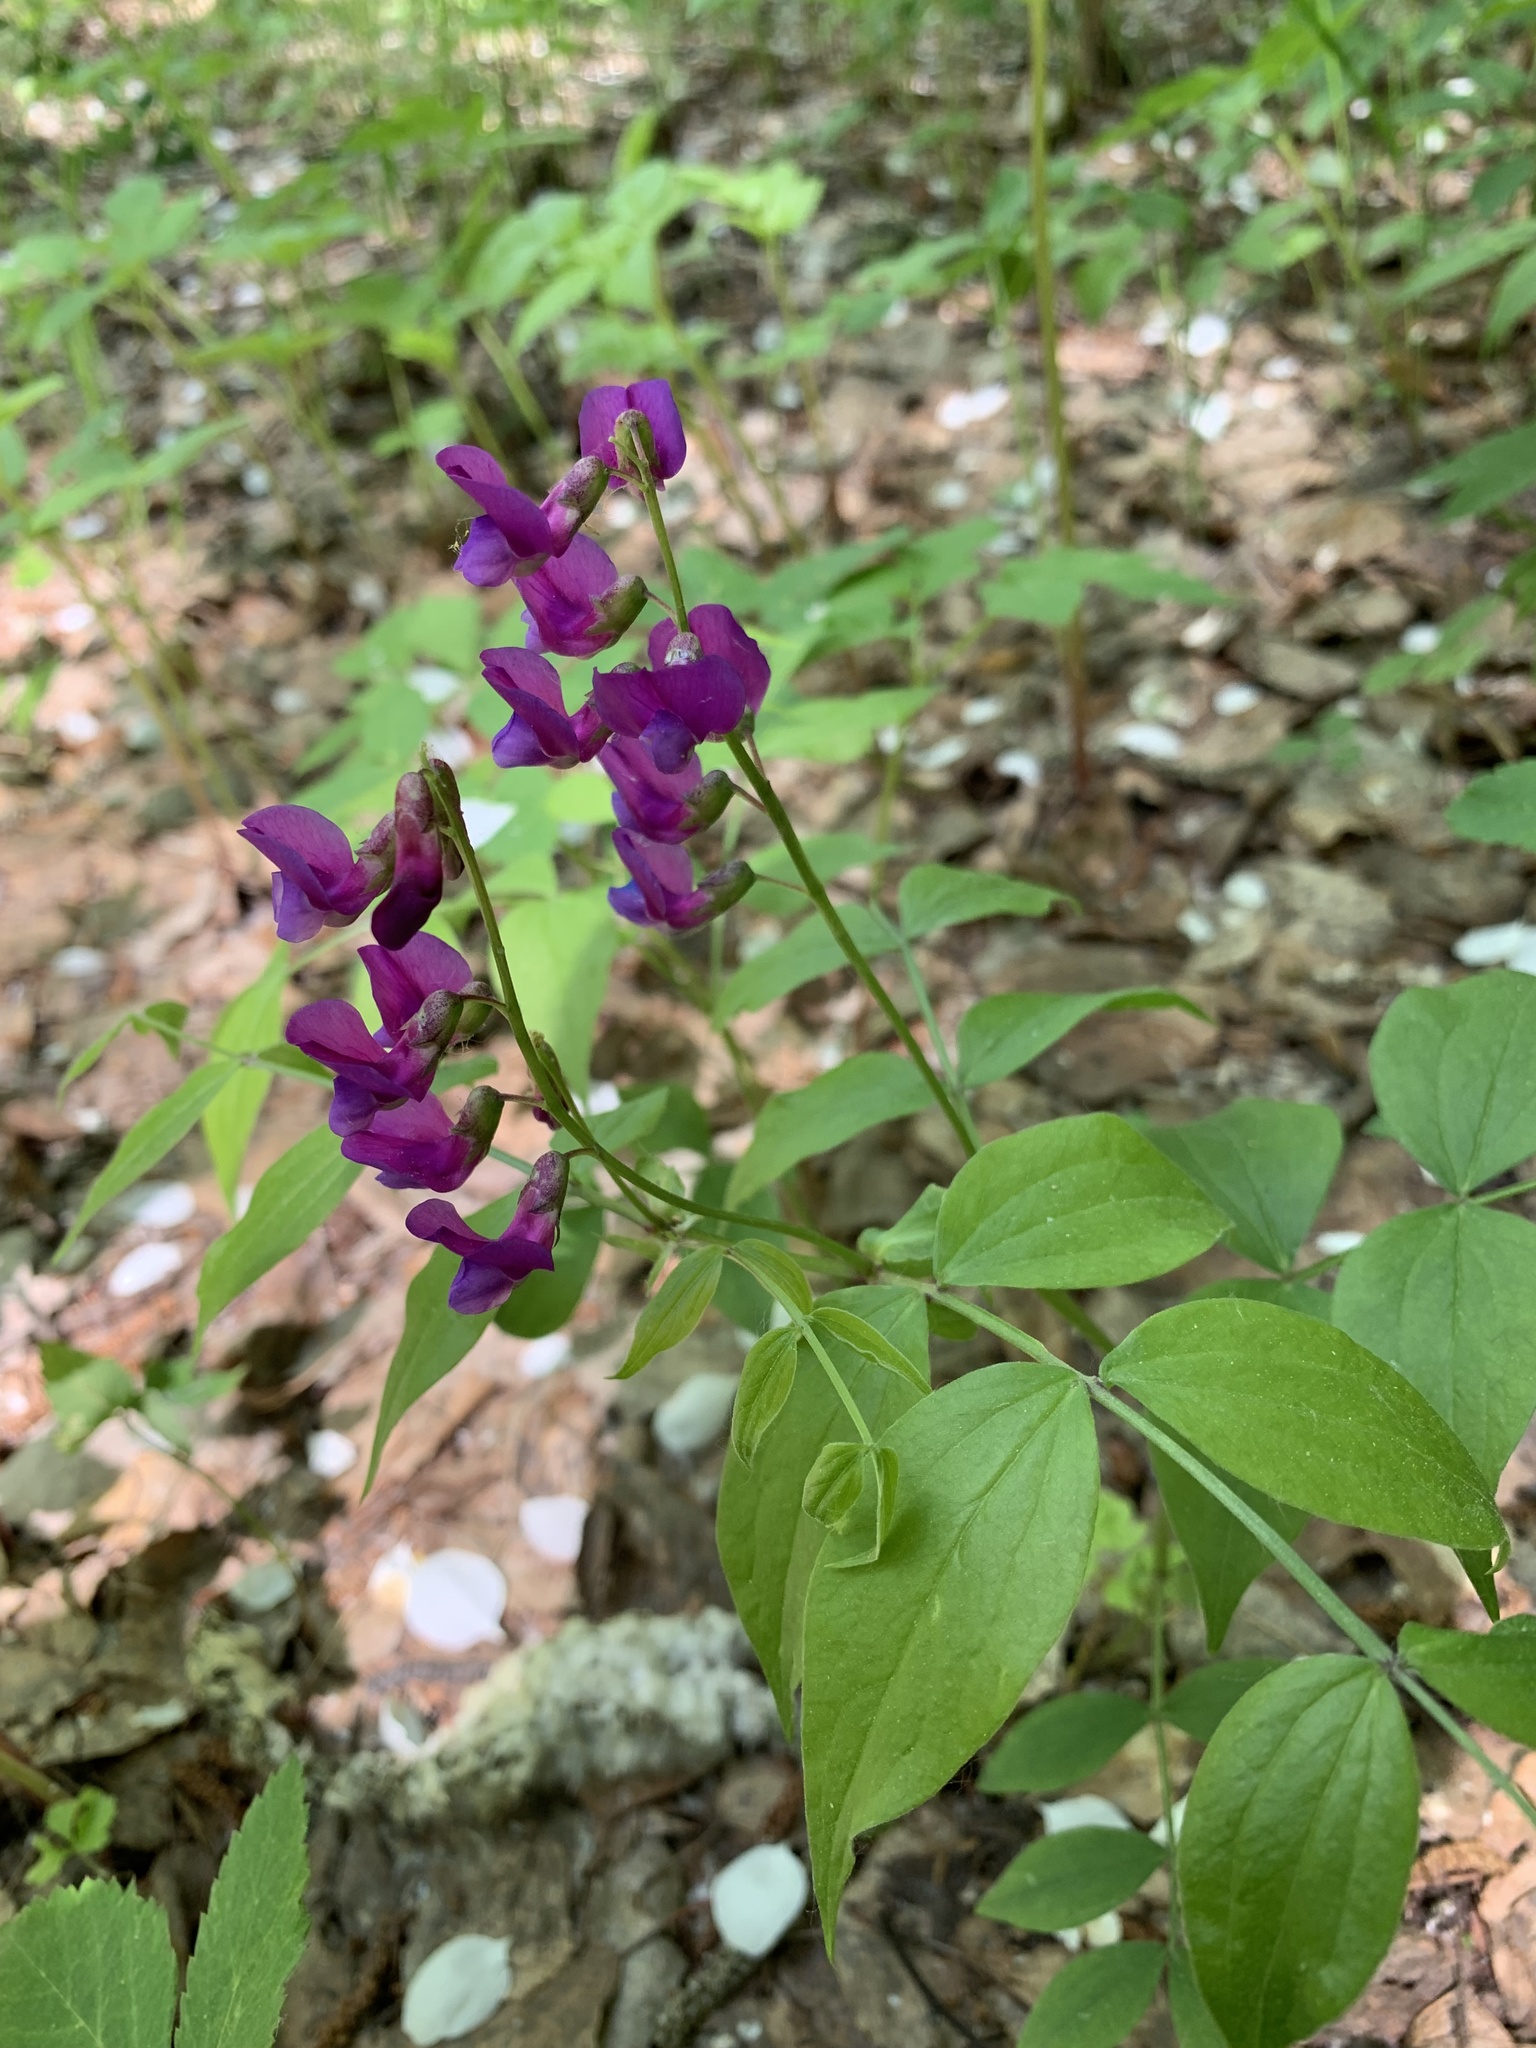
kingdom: Plantae
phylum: Tracheophyta
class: Magnoliopsida
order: Fabales
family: Fabaceae
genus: Lathyrus
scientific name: Lathyrus vernus
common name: Spring pea
